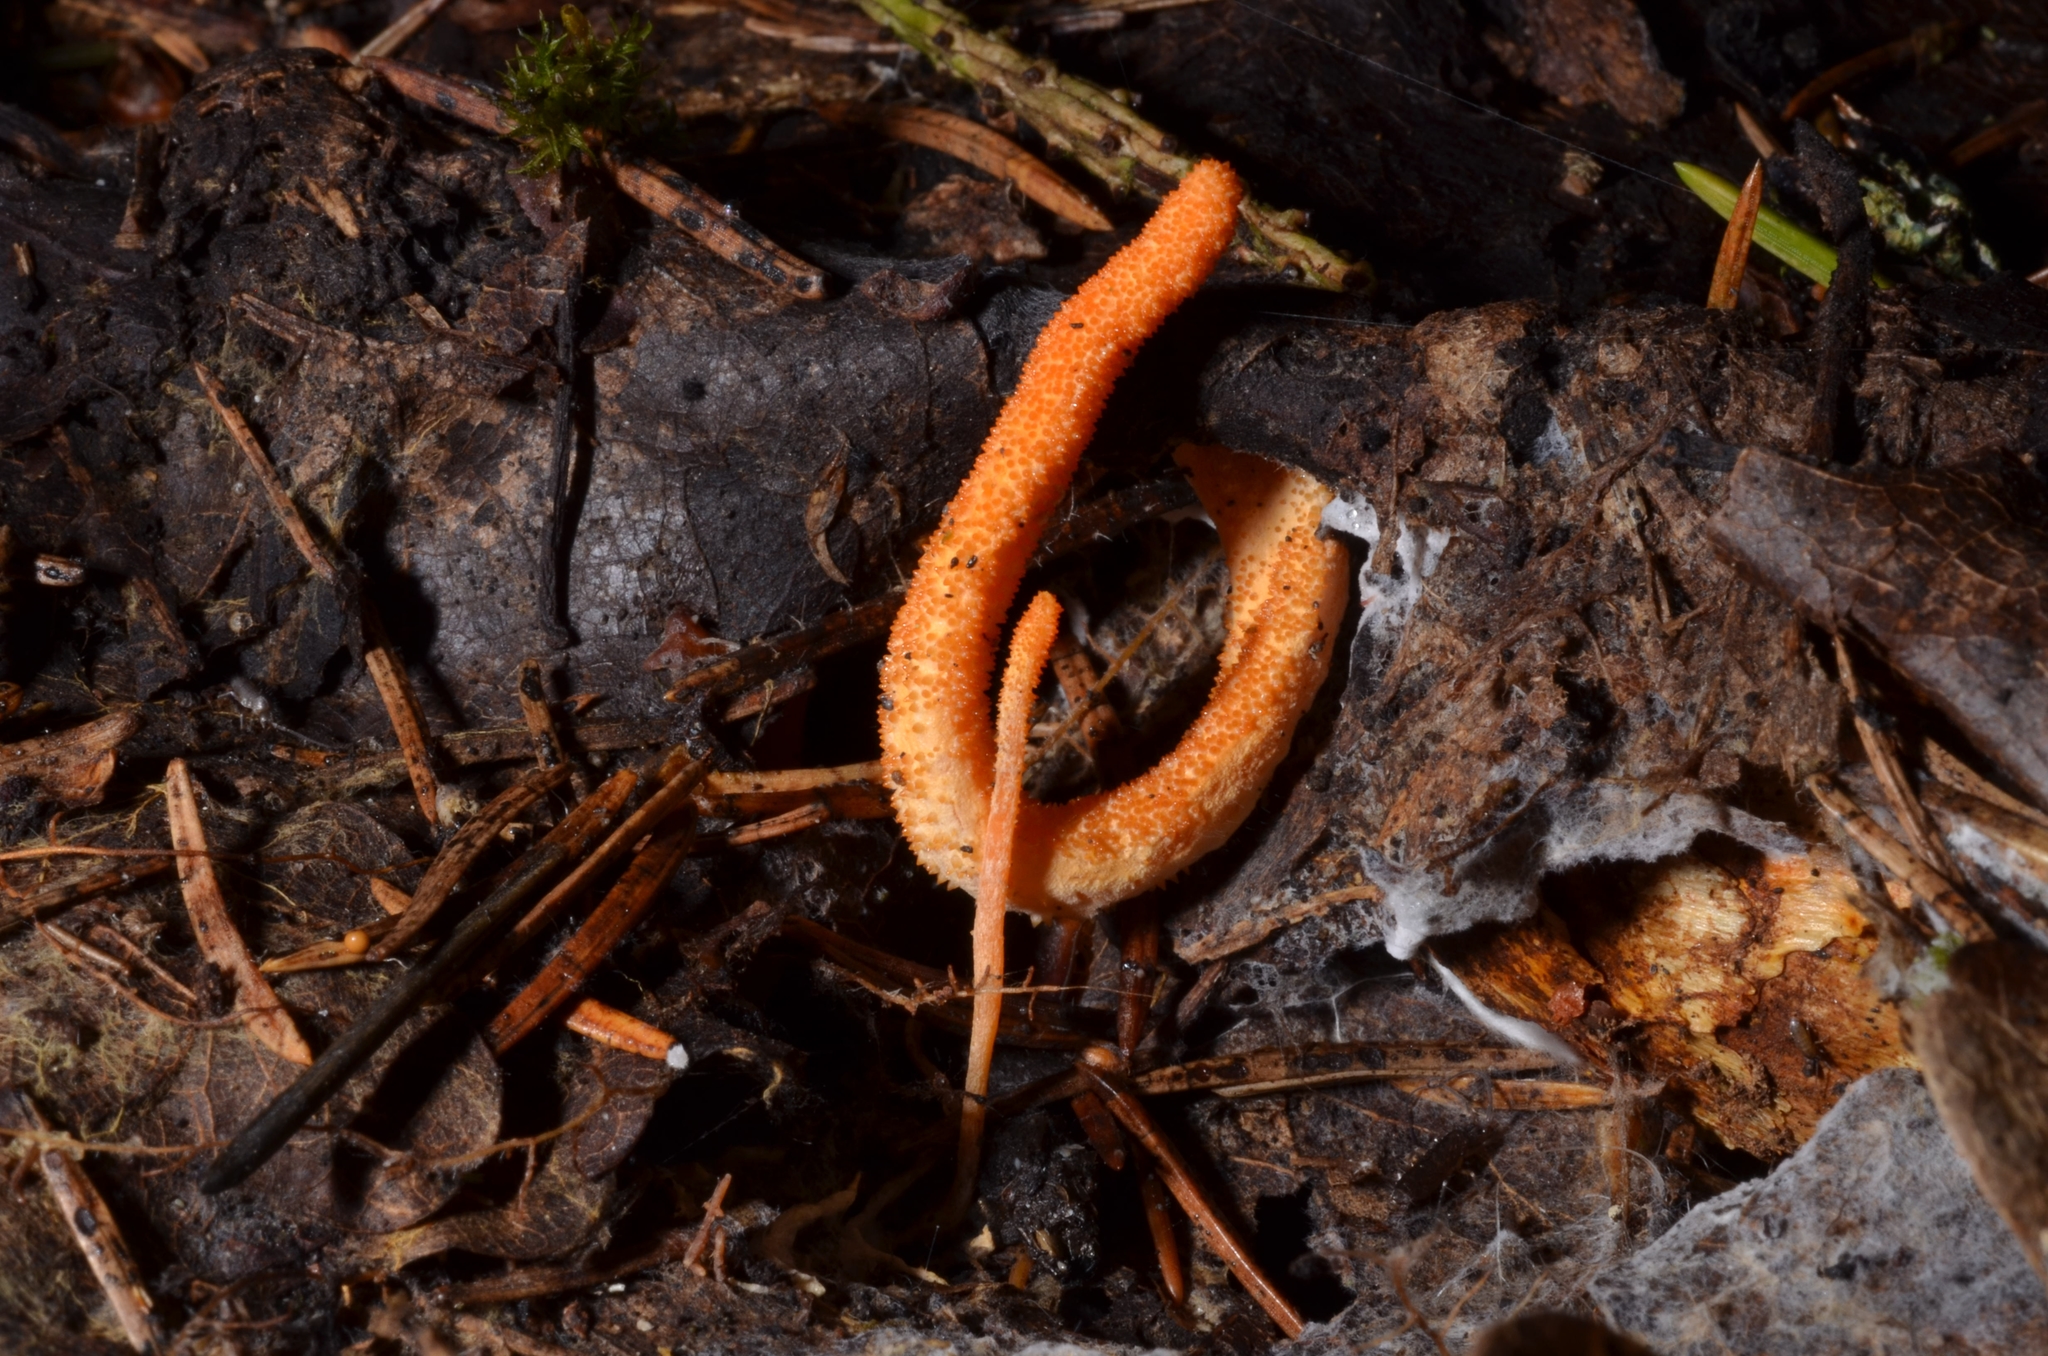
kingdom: Fungi
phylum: Ascomycota
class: Sordariomycetes
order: Hypocreales
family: Cordycipitaceae
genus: Cordyceps
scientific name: Cordyceps militaris
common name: Scarlet caterpillar fungus
